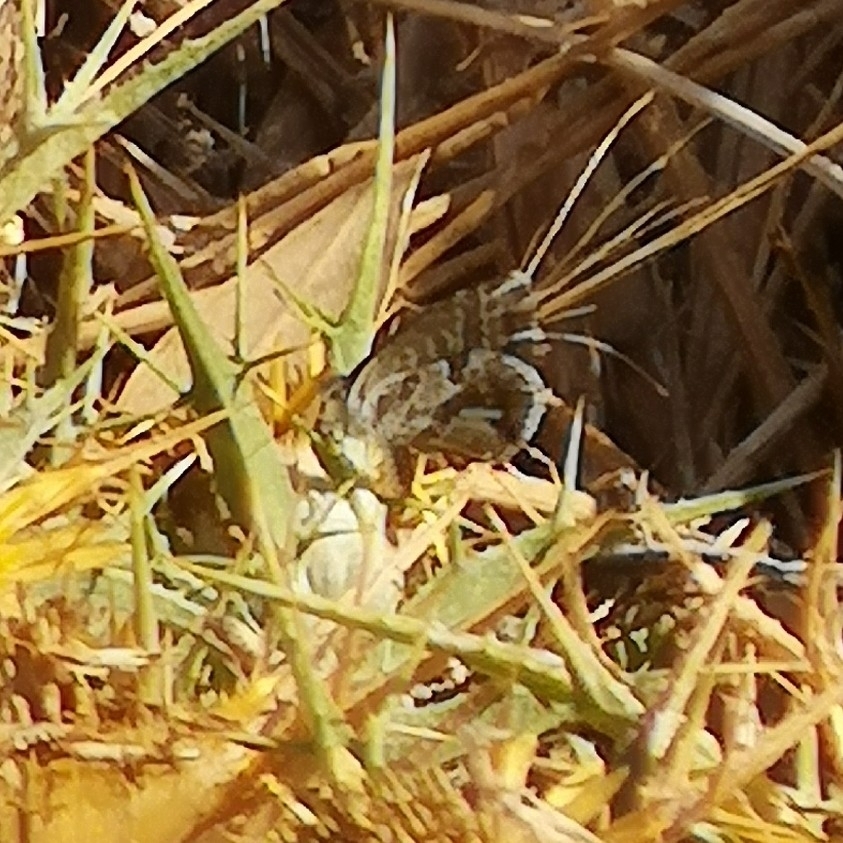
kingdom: Animalia
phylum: Arthropoda
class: Insecta
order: Lepidoptera
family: Lycaenidae
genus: Cacyreus
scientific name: Cacyreus marshalli
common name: Geranium bronze
